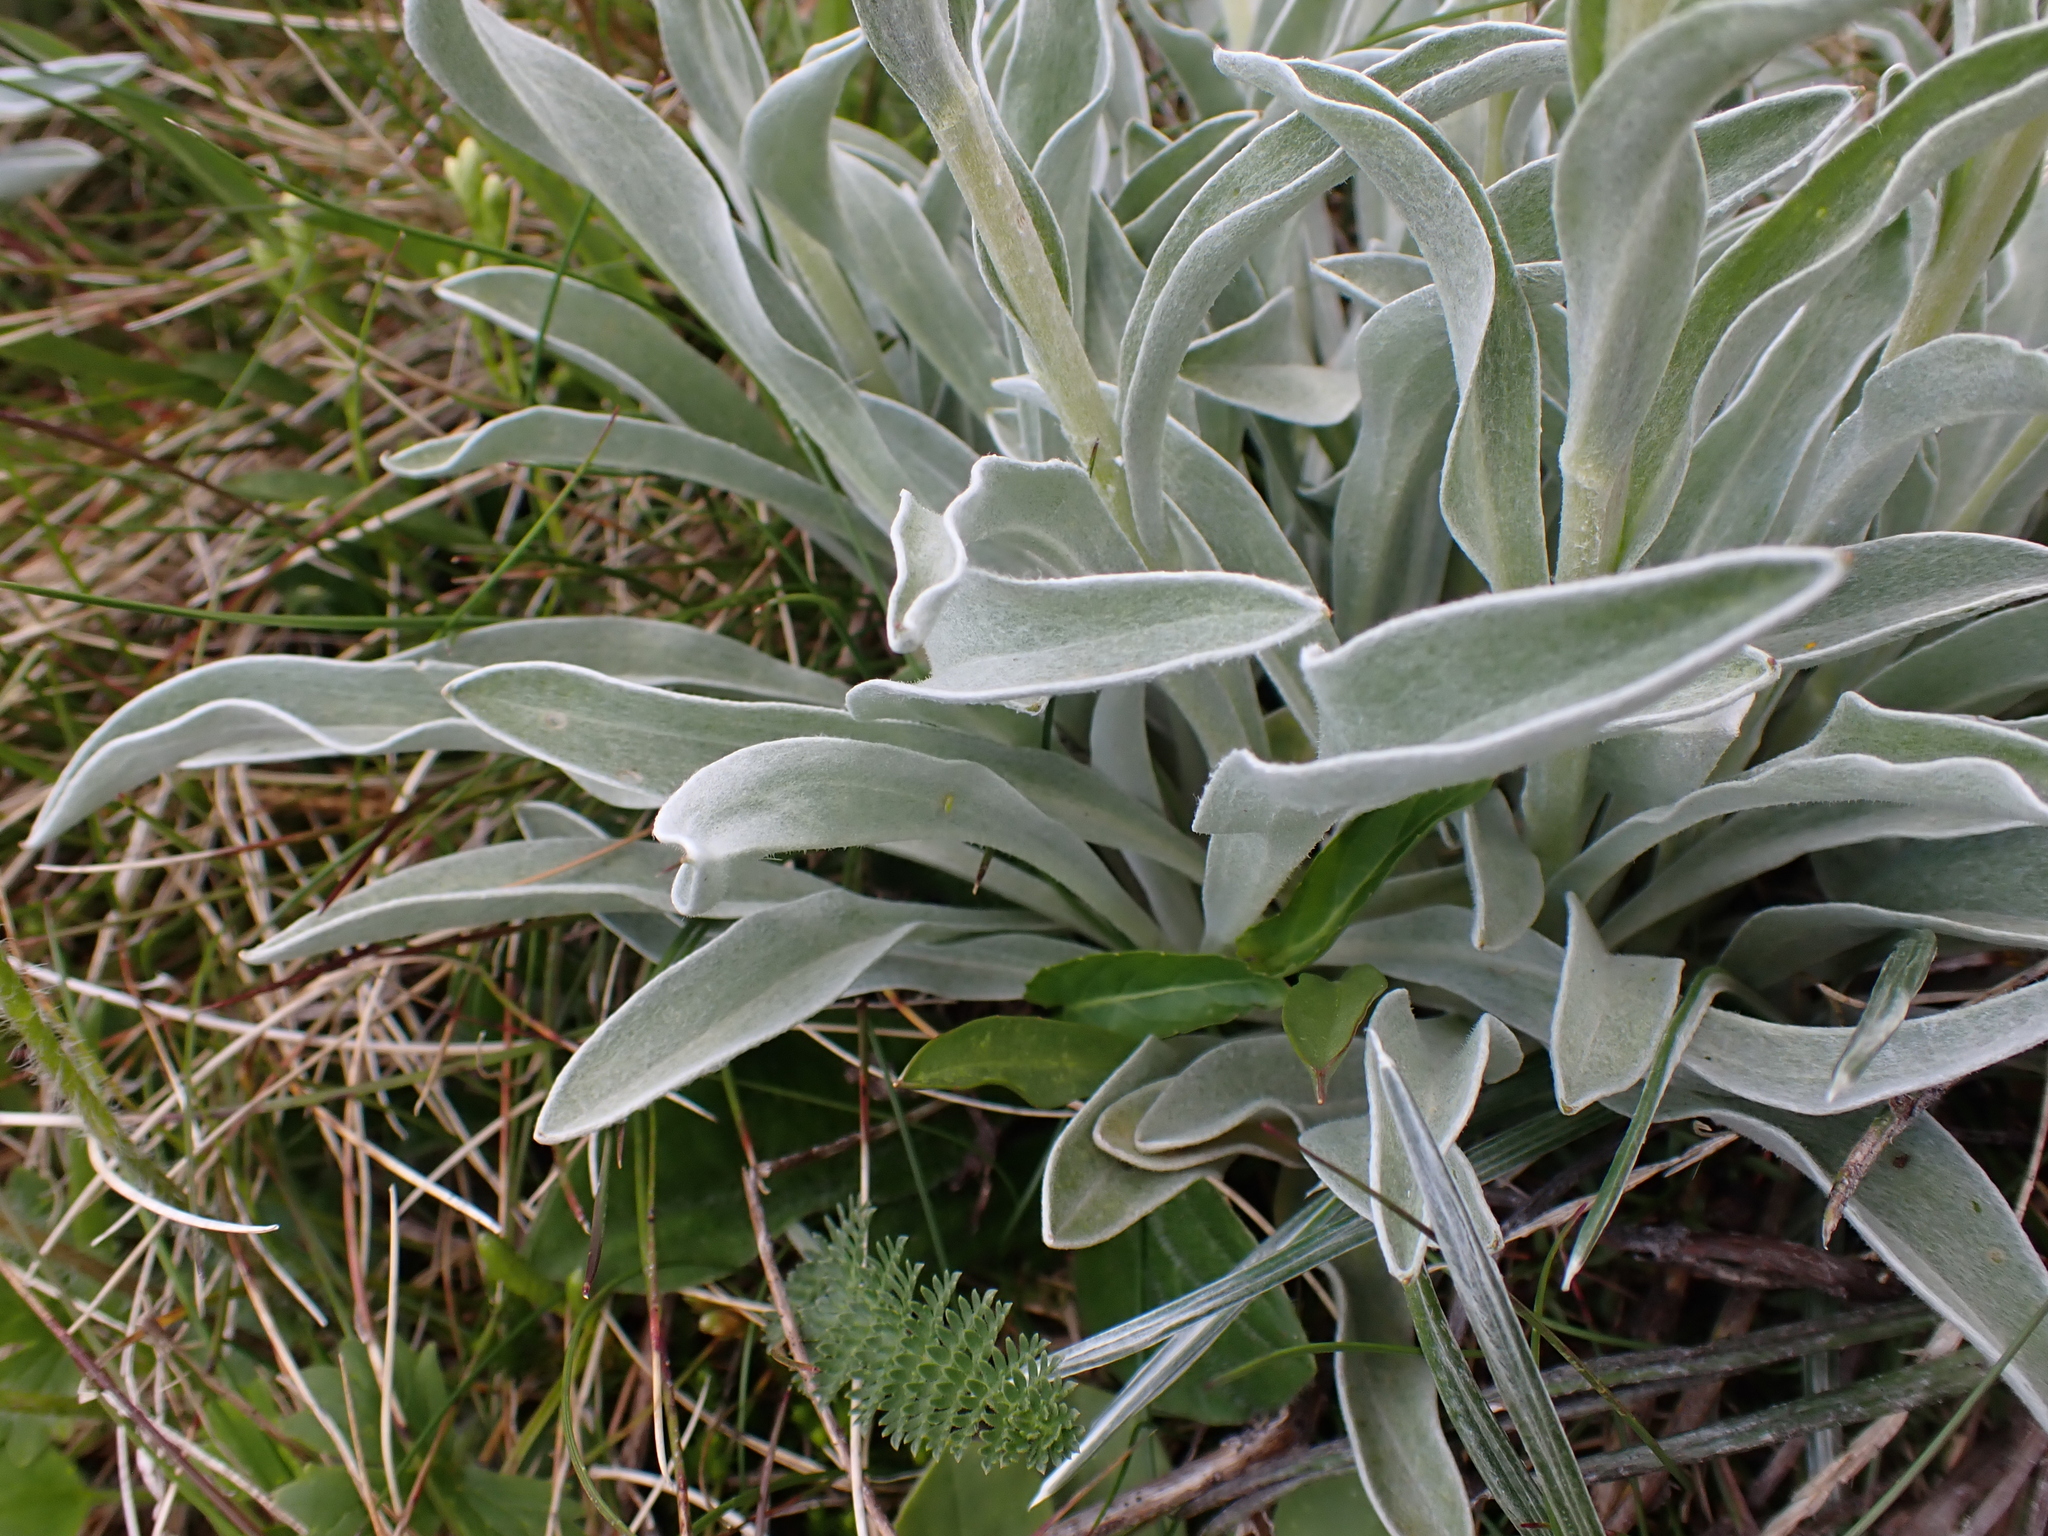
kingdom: Plantae
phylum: Tracheophyta
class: Magnoliopsida
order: Asterales
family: Asteraceae
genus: Craspedia
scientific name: Craspedia maxgrayi
